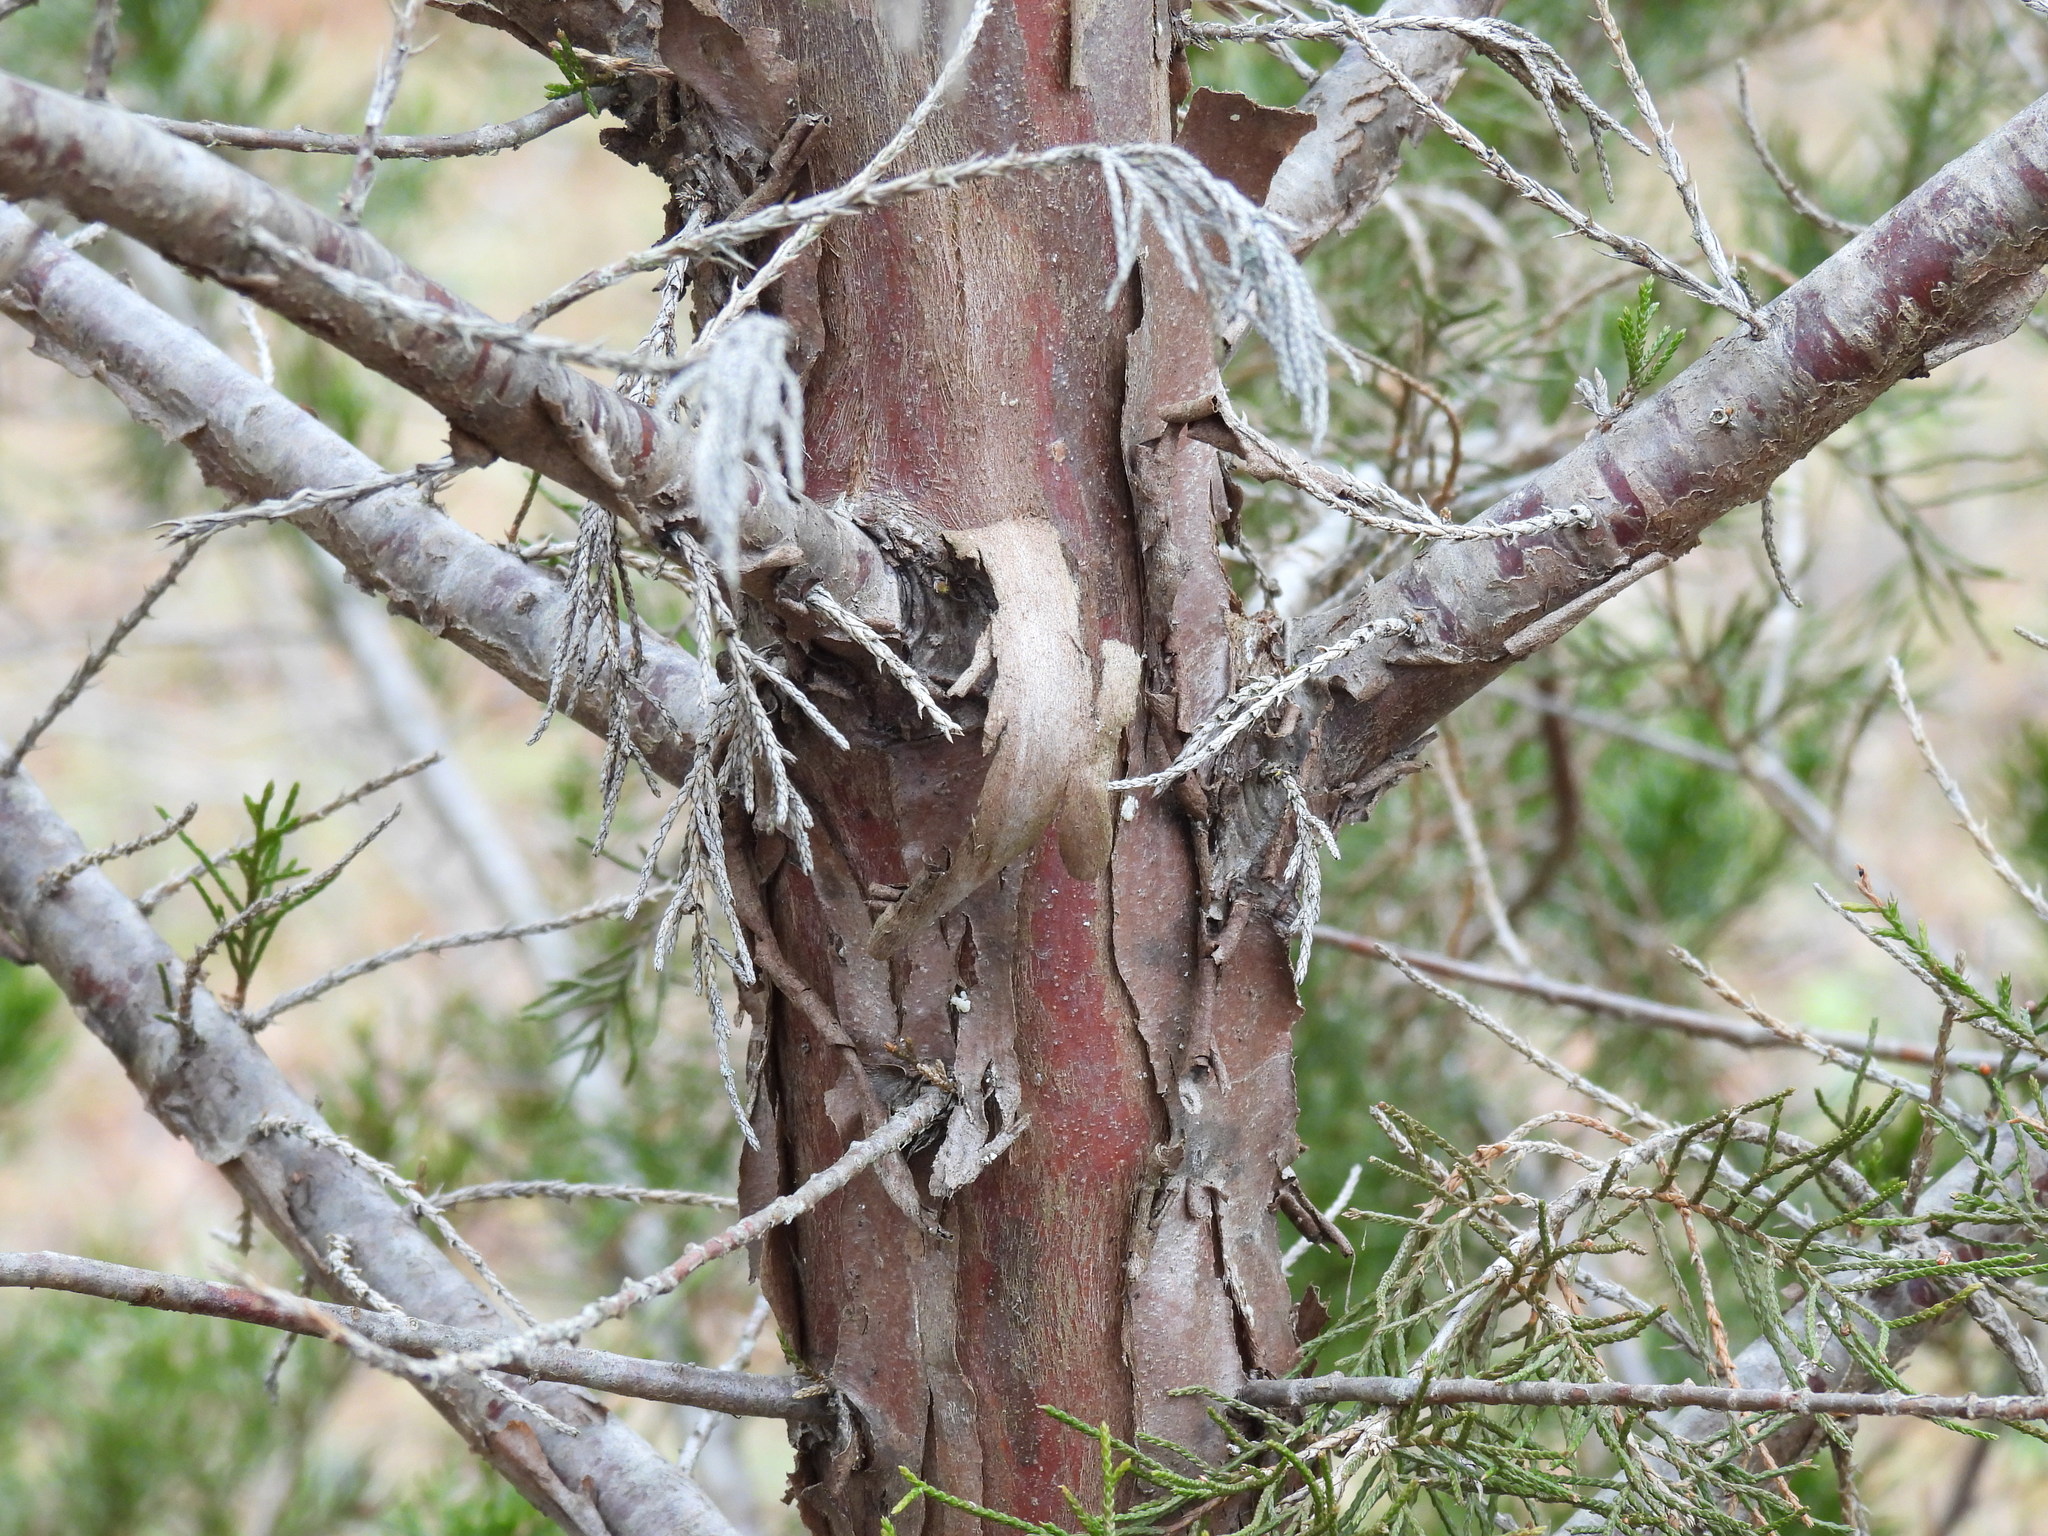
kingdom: Fungi
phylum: Basidiomycota
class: Pucciniomycetes
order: Pucciniales
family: Gymnosporangiaceae
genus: Gymnosporangium
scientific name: Gymnosporangium juniperi-virginianae
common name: Juniper-apple rust
